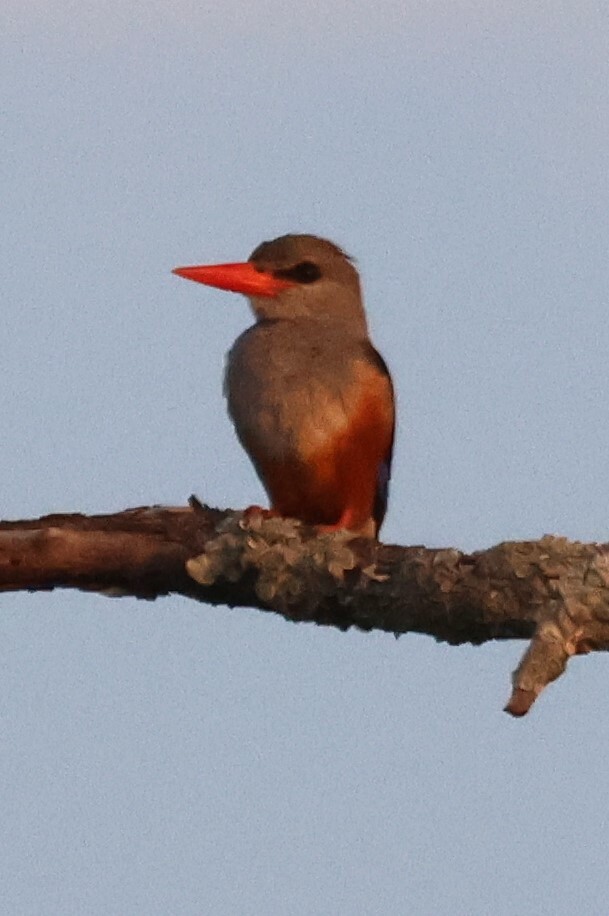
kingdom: Animalia
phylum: Chordata
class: Aves
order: Coraciiformes
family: Alcedinidae
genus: Halcyon
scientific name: Halcyon leucocephala
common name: Grey-headed kingfisher
